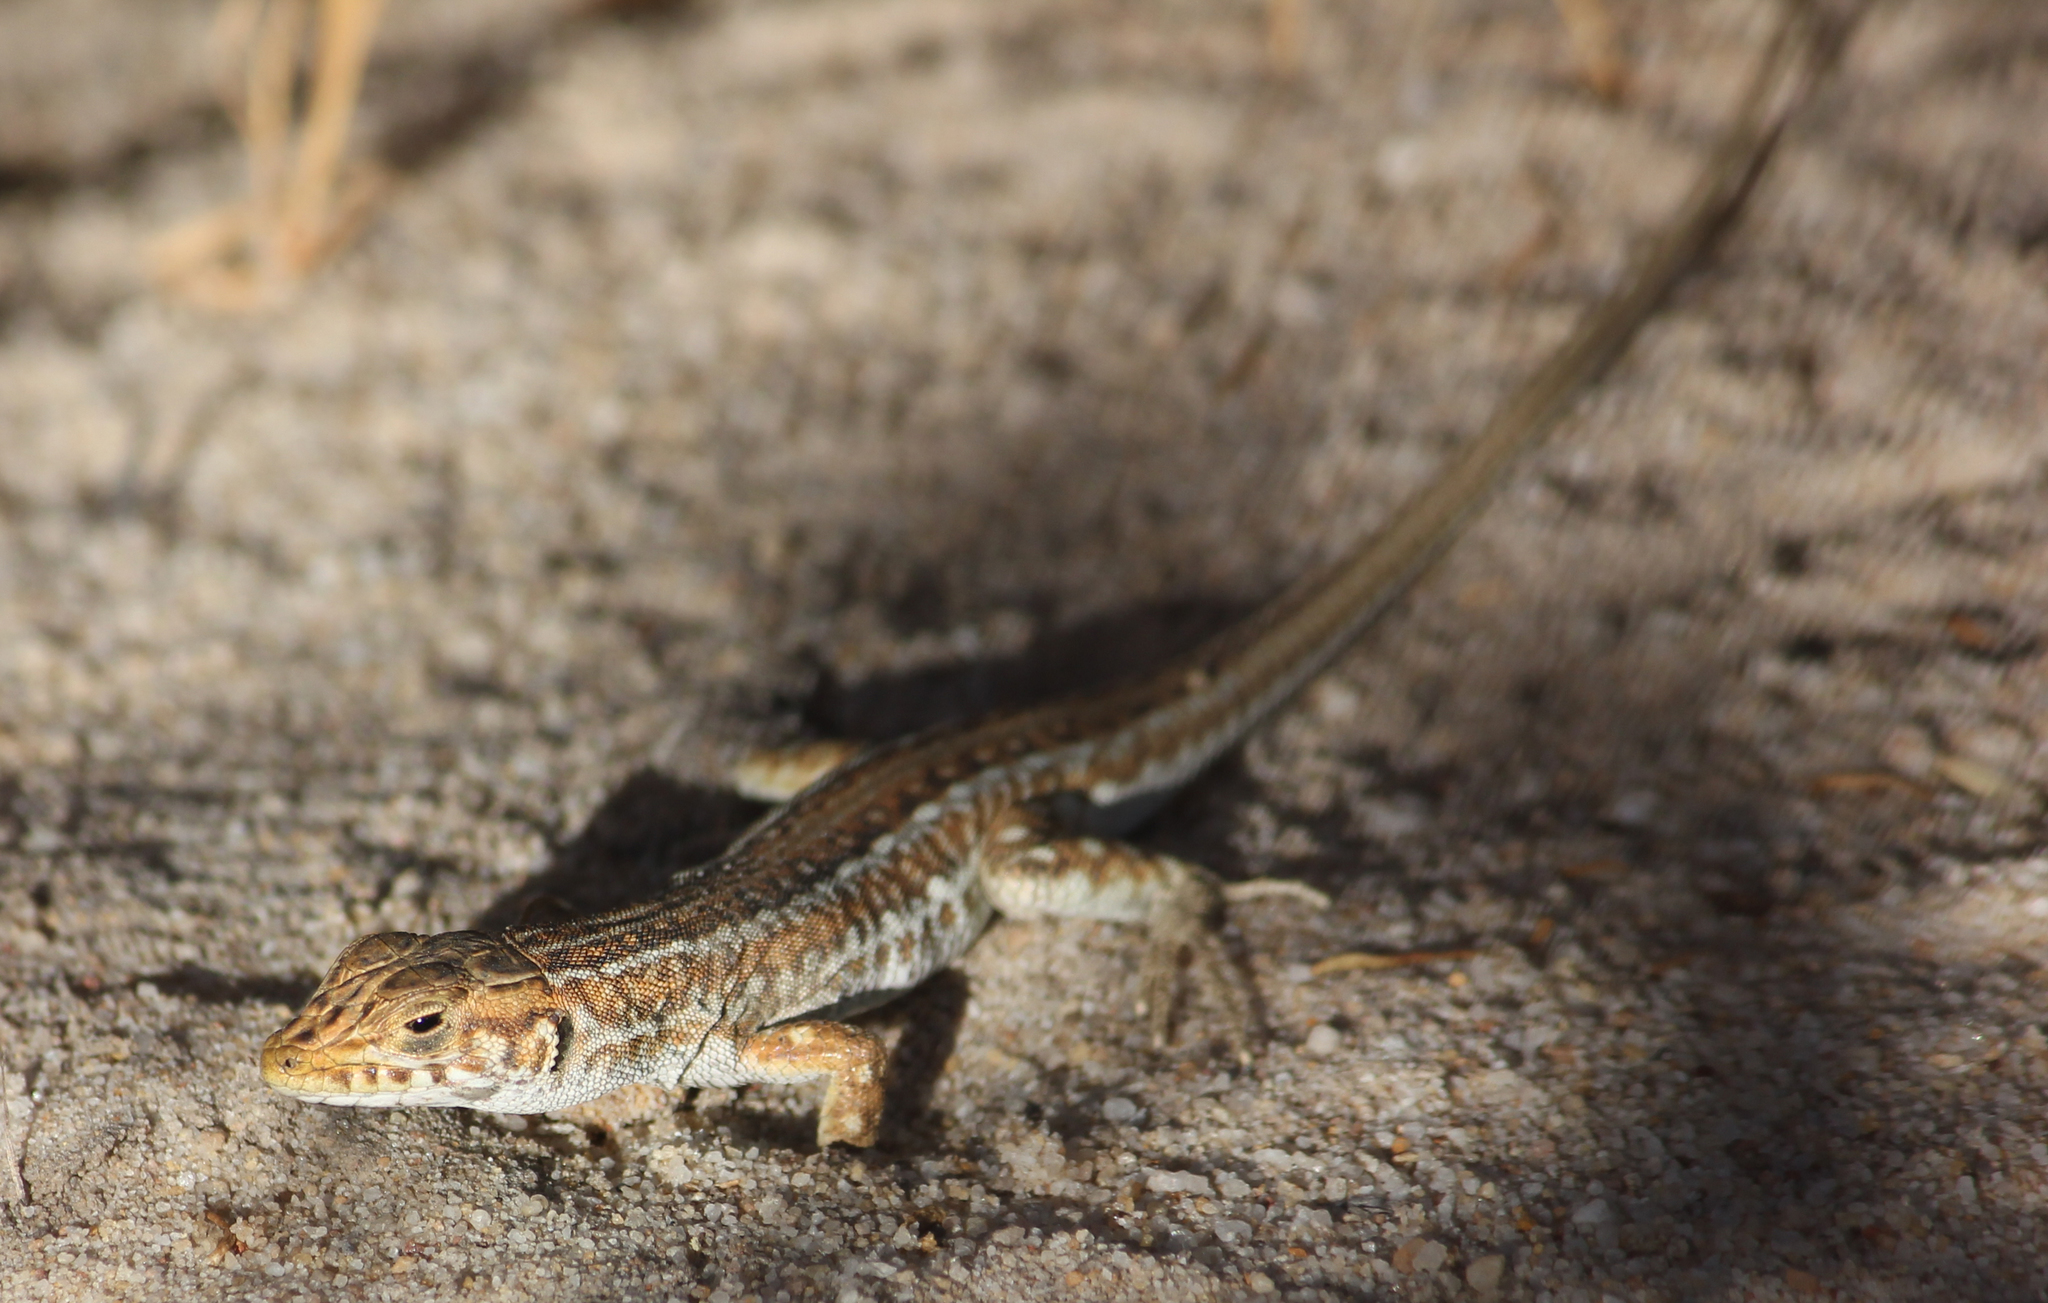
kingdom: Animalia
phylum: Chordata
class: Squamata
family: Lacertidae
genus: Meroles
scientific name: Meroles knoxii
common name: Knox's desert lizard
